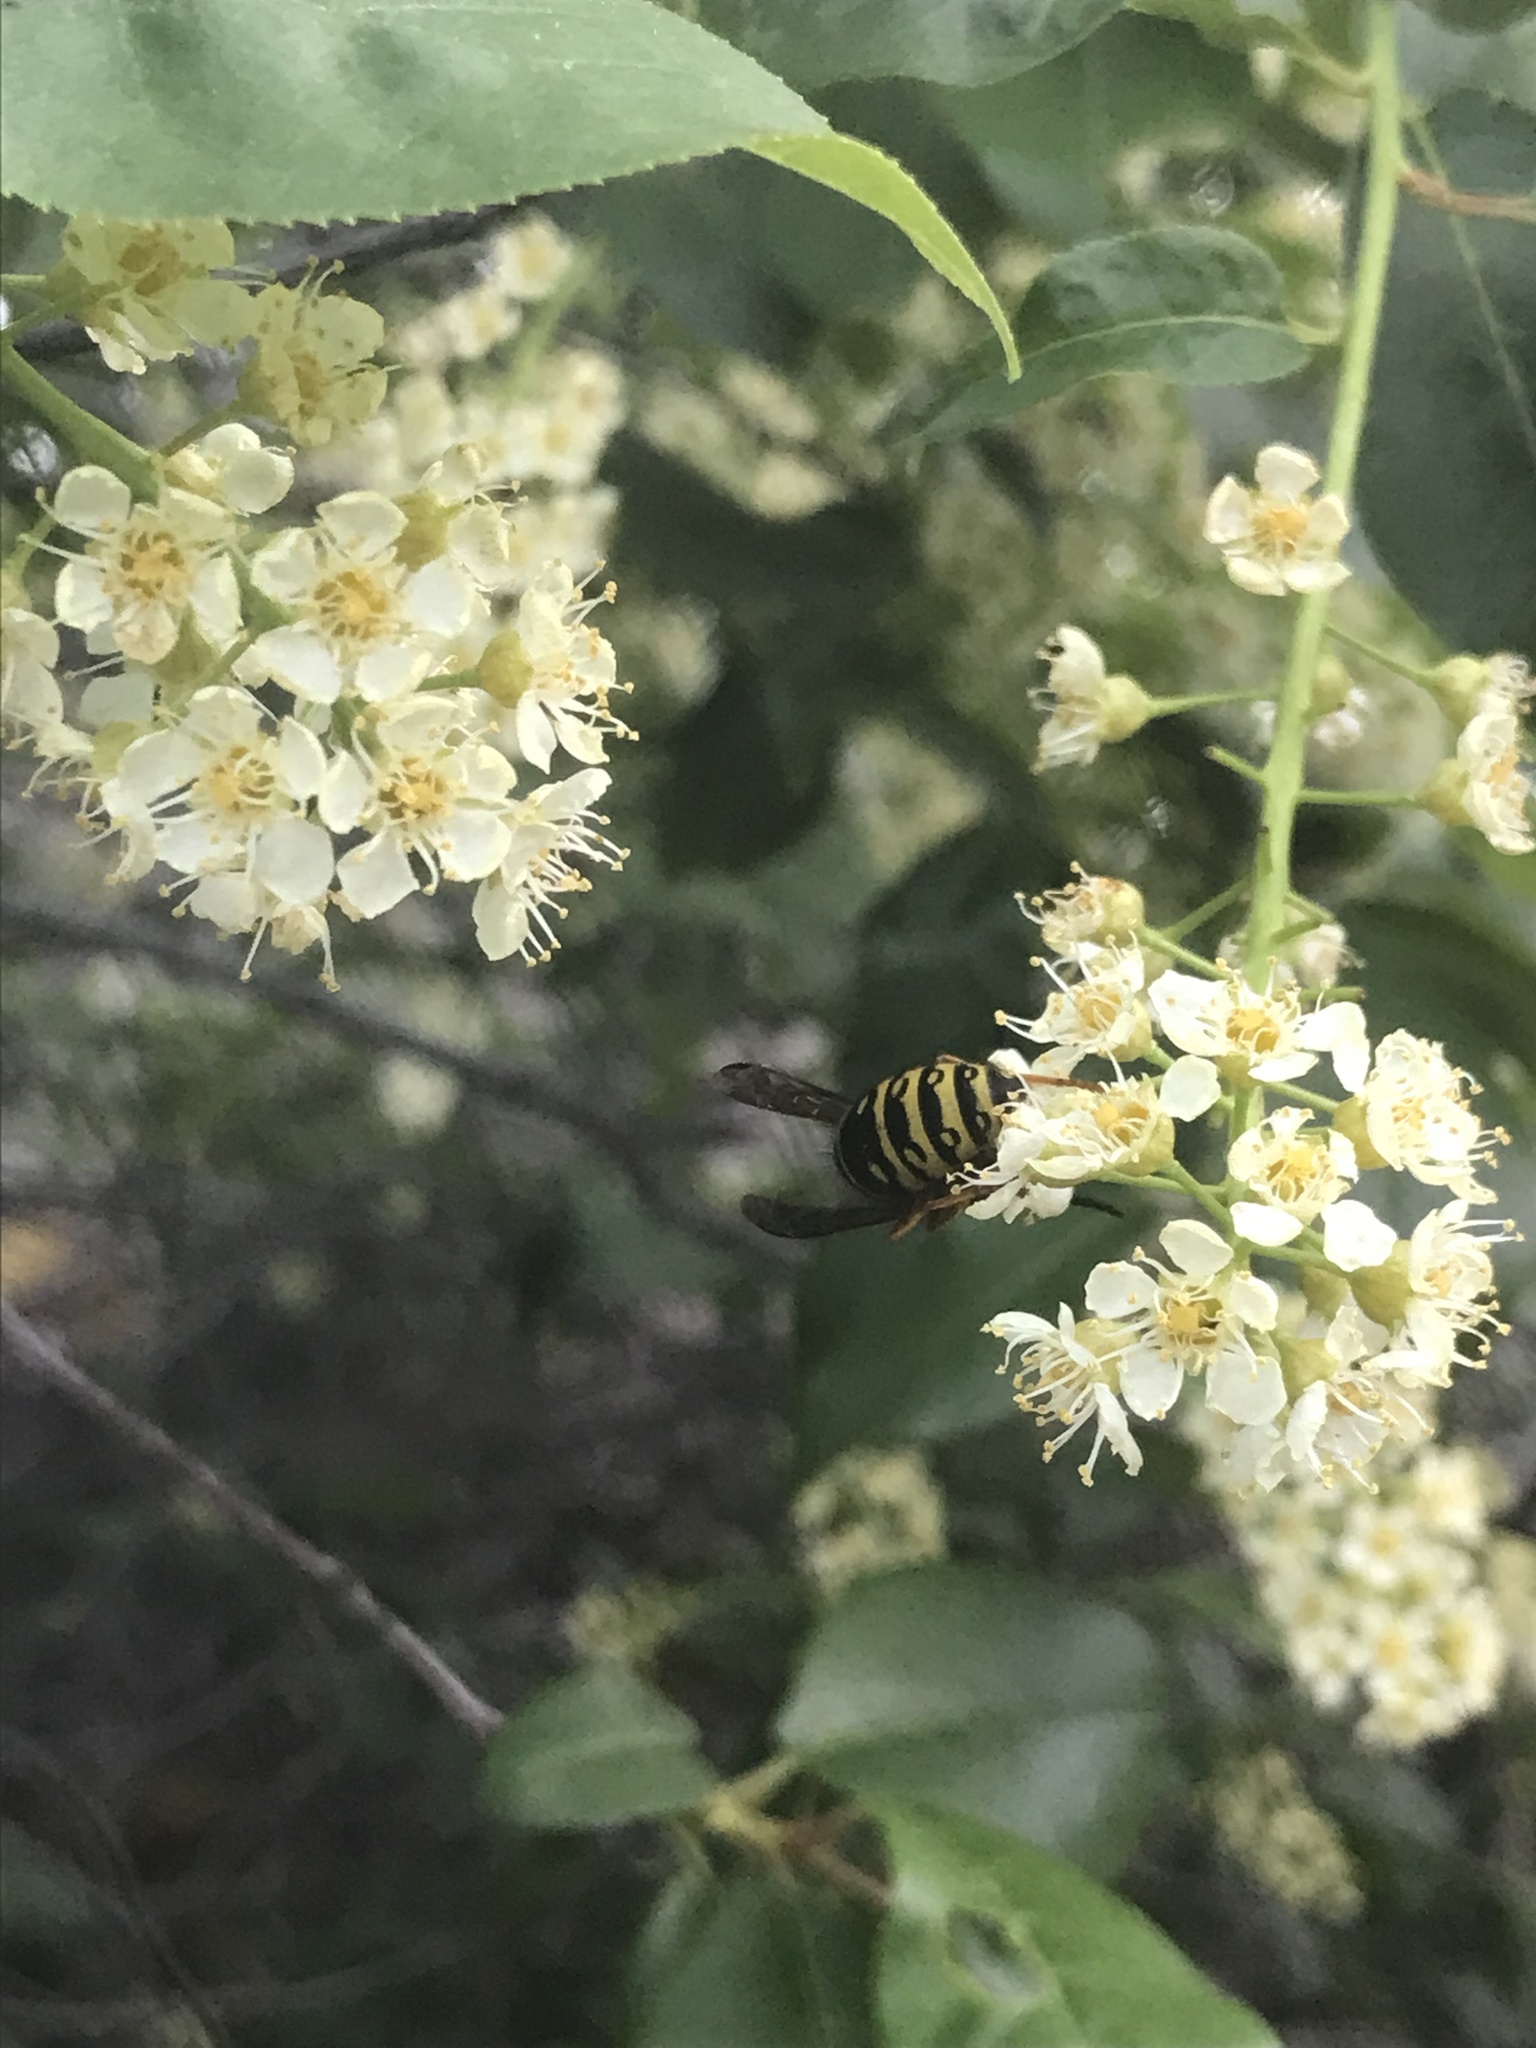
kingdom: Animalia
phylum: Arthropoda
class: Insecta
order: Hymenoptera
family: Vespidae
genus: Vespula
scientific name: Vespula acadica
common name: Forest yellowjacket
